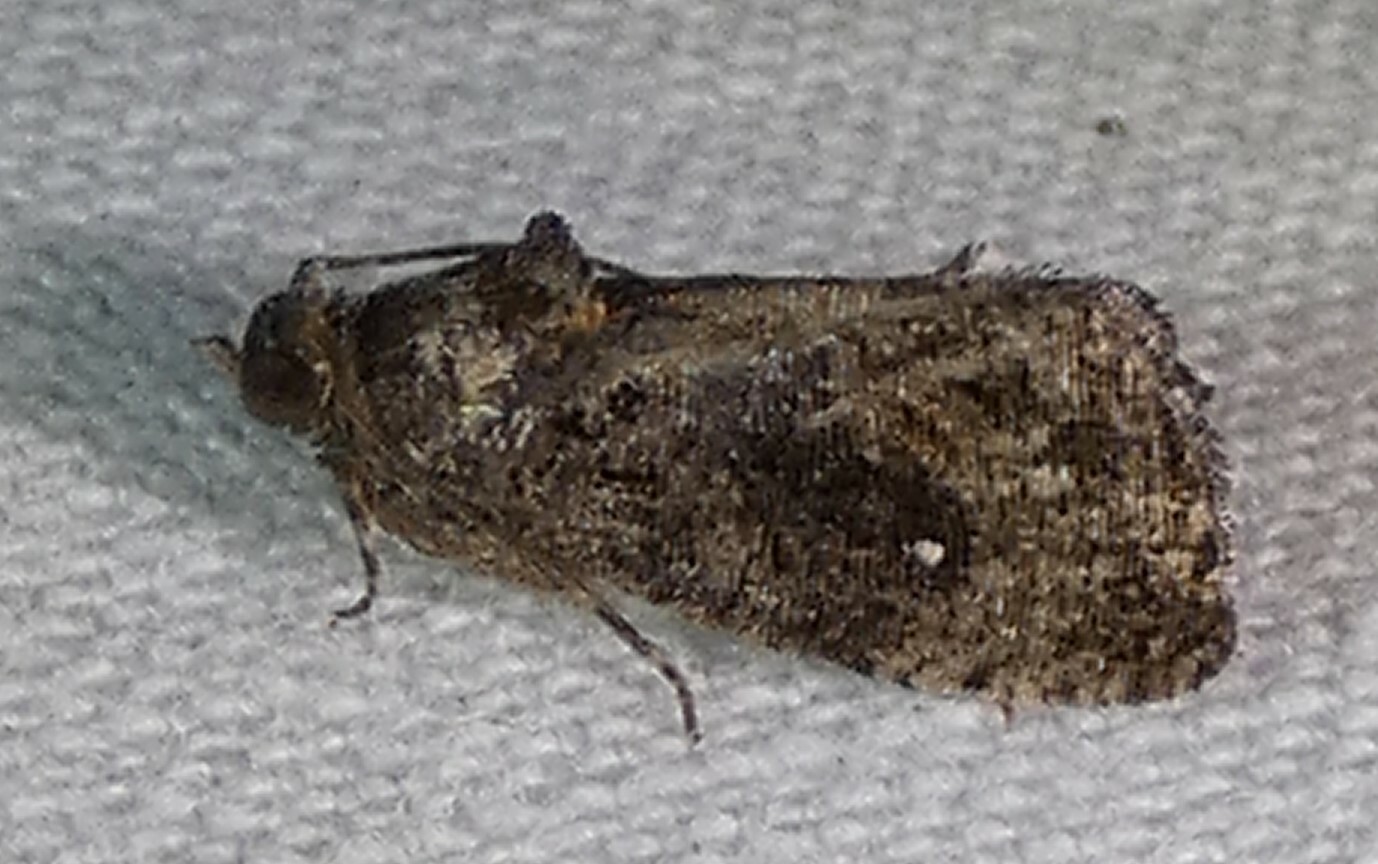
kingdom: Animalia
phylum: Arthropoda
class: Insecta
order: Lepidoptera
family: Tortricidae
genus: Gymnandrosoma
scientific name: Gymnandrosoma punctidiscanum
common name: Dotted ecdytolopha moth
